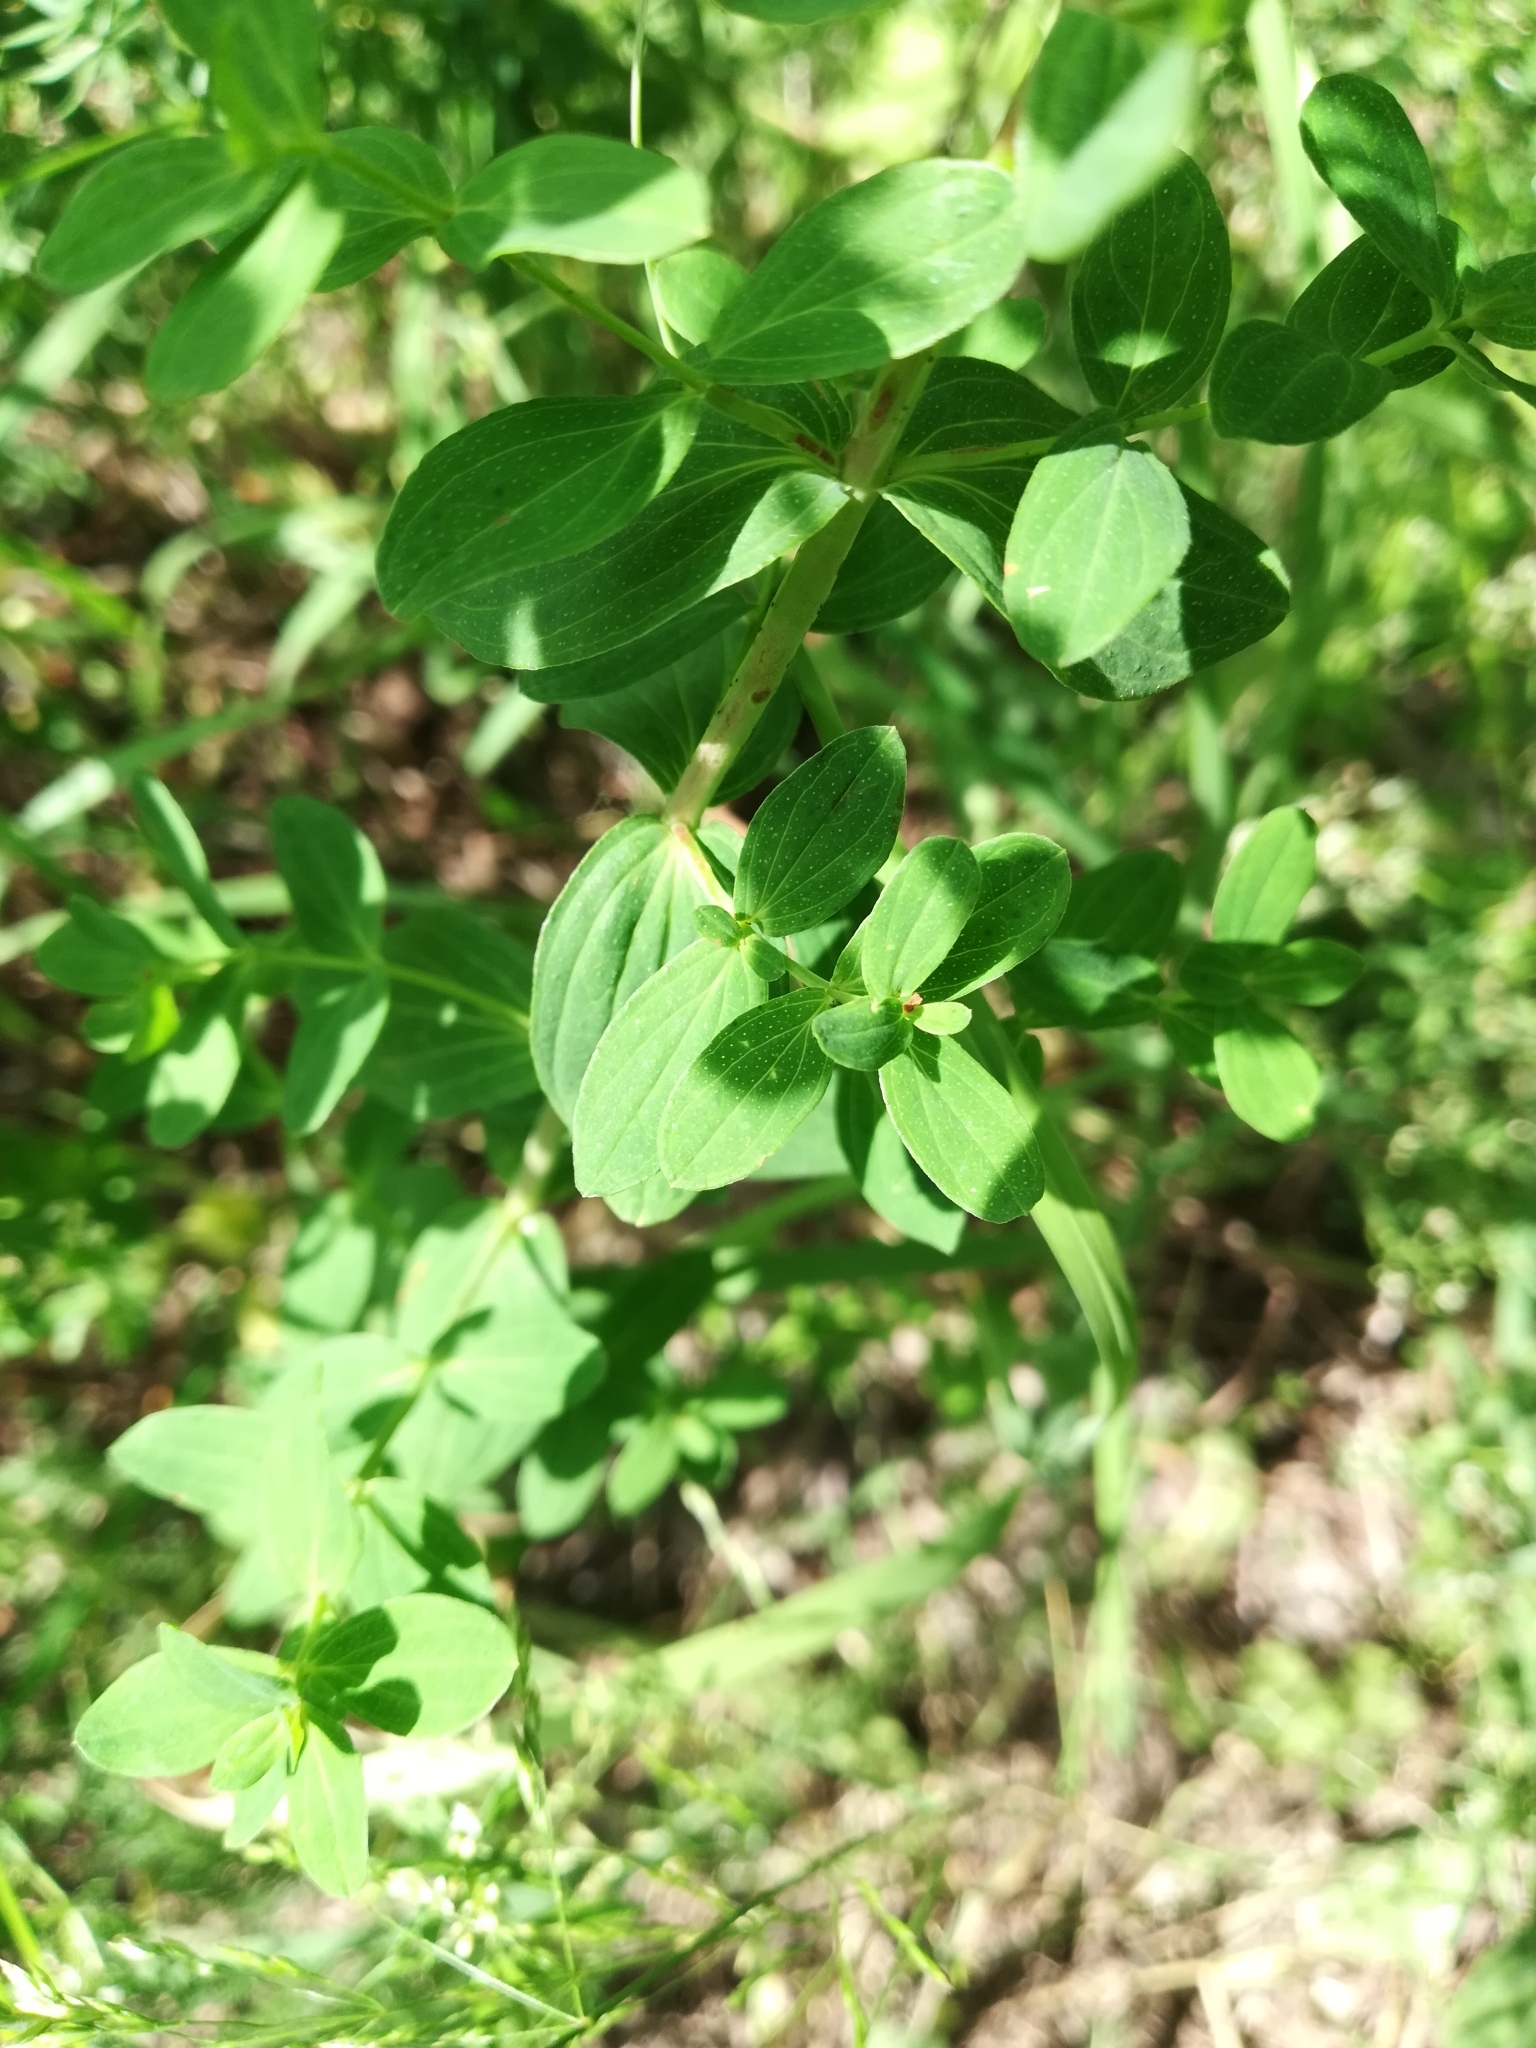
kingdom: Plantae
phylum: Tracheophyta
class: Magnoliopsida
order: Malpighiales
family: Hypericaceae
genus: Hypericum
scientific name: Hypericum perforatum
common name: Common st. johnswort
